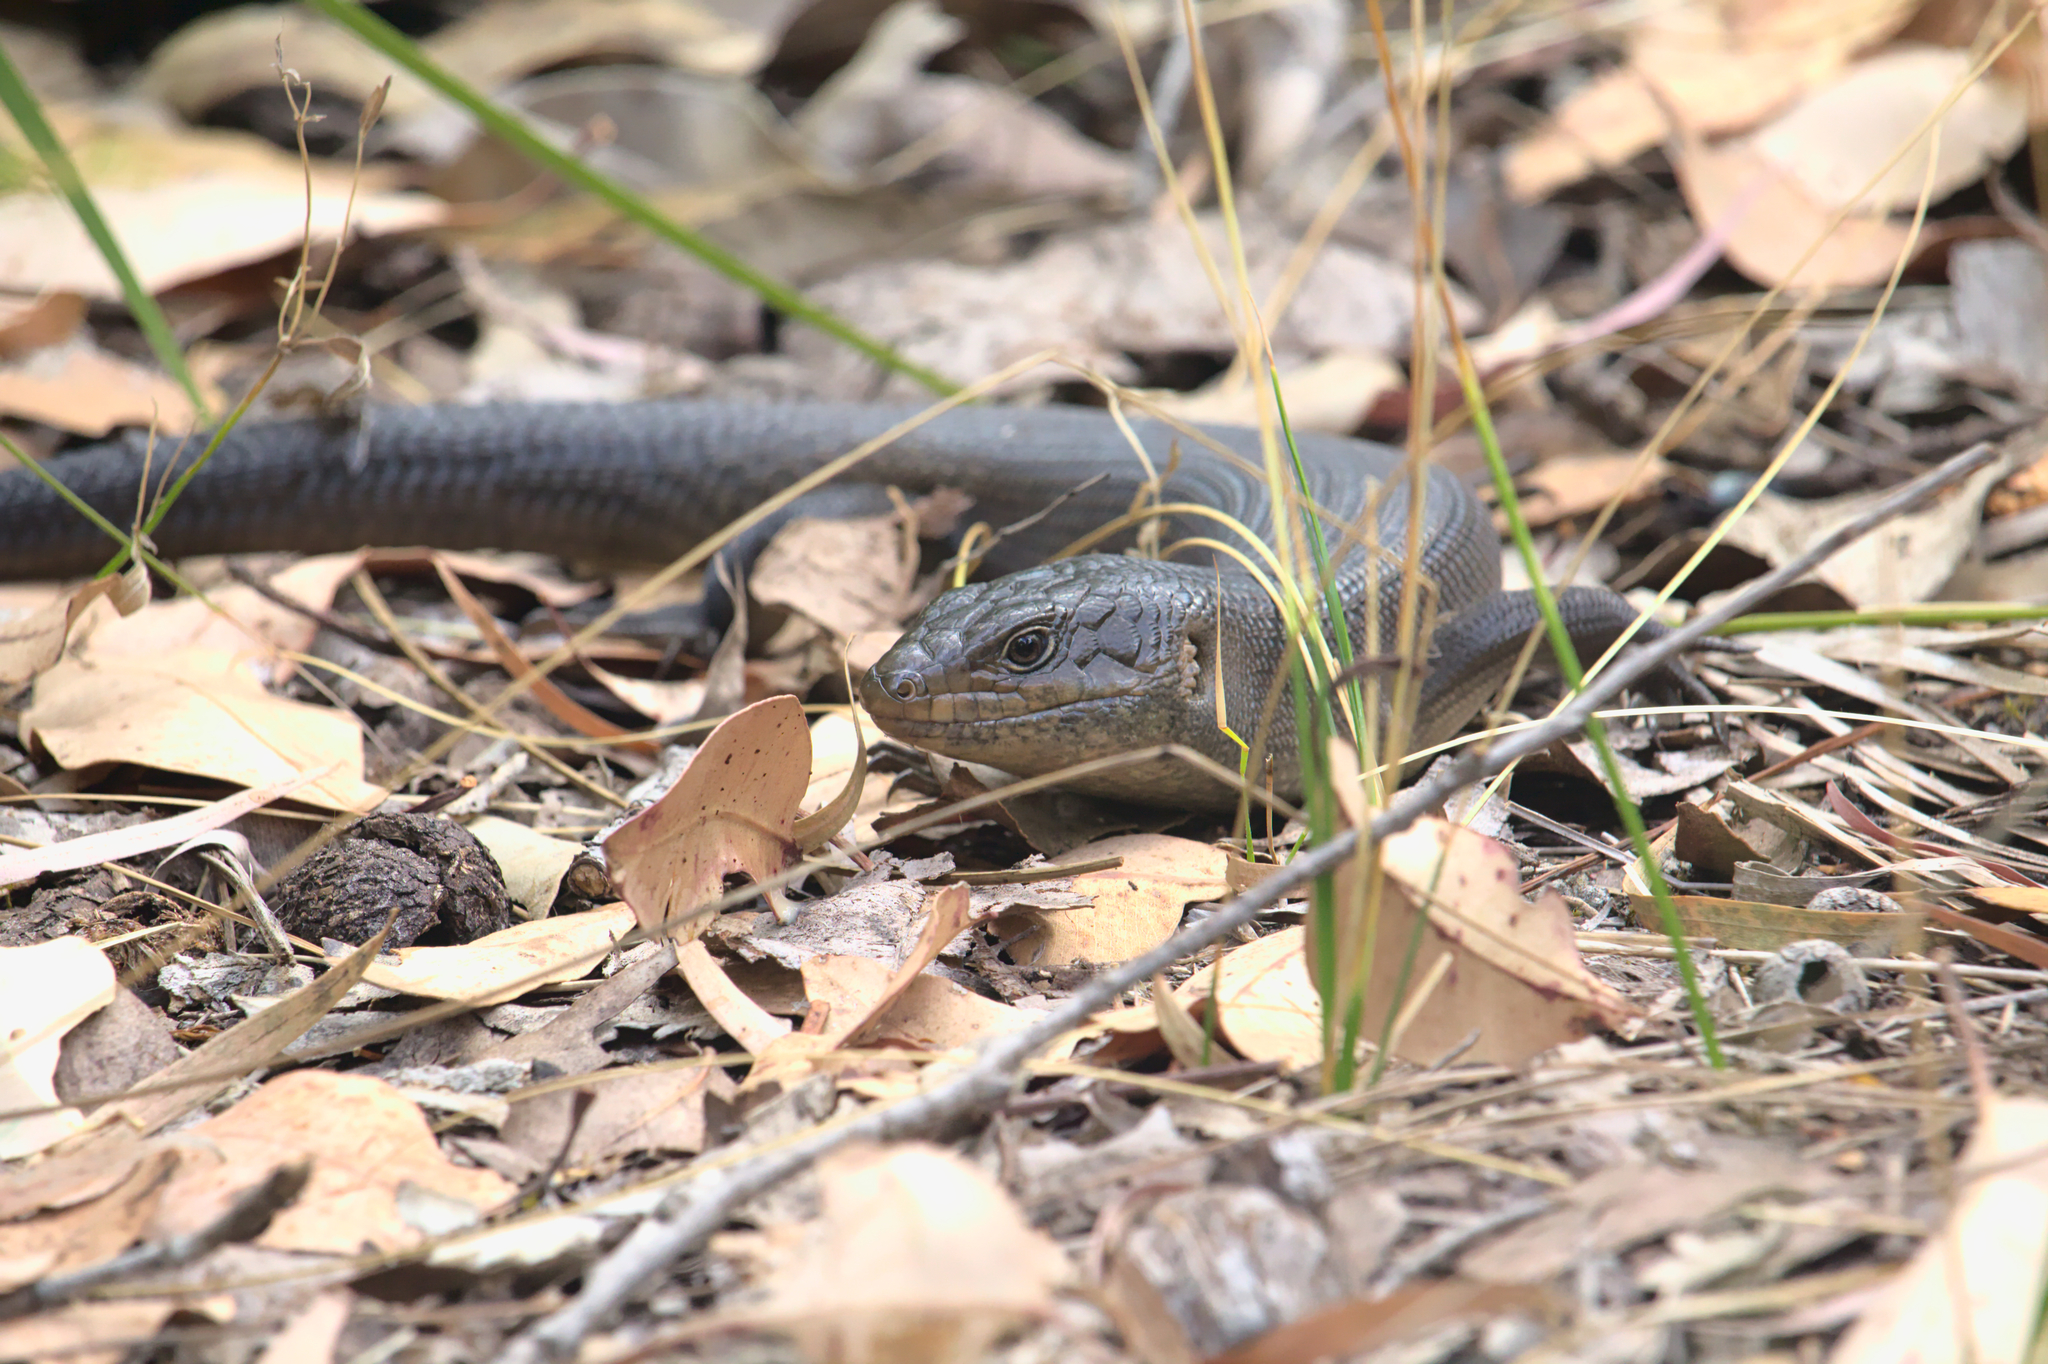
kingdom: Animalia
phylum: Chordata
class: Squamata
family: Scincidae
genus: Egernia
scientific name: Egernia kingii
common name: King's skink
